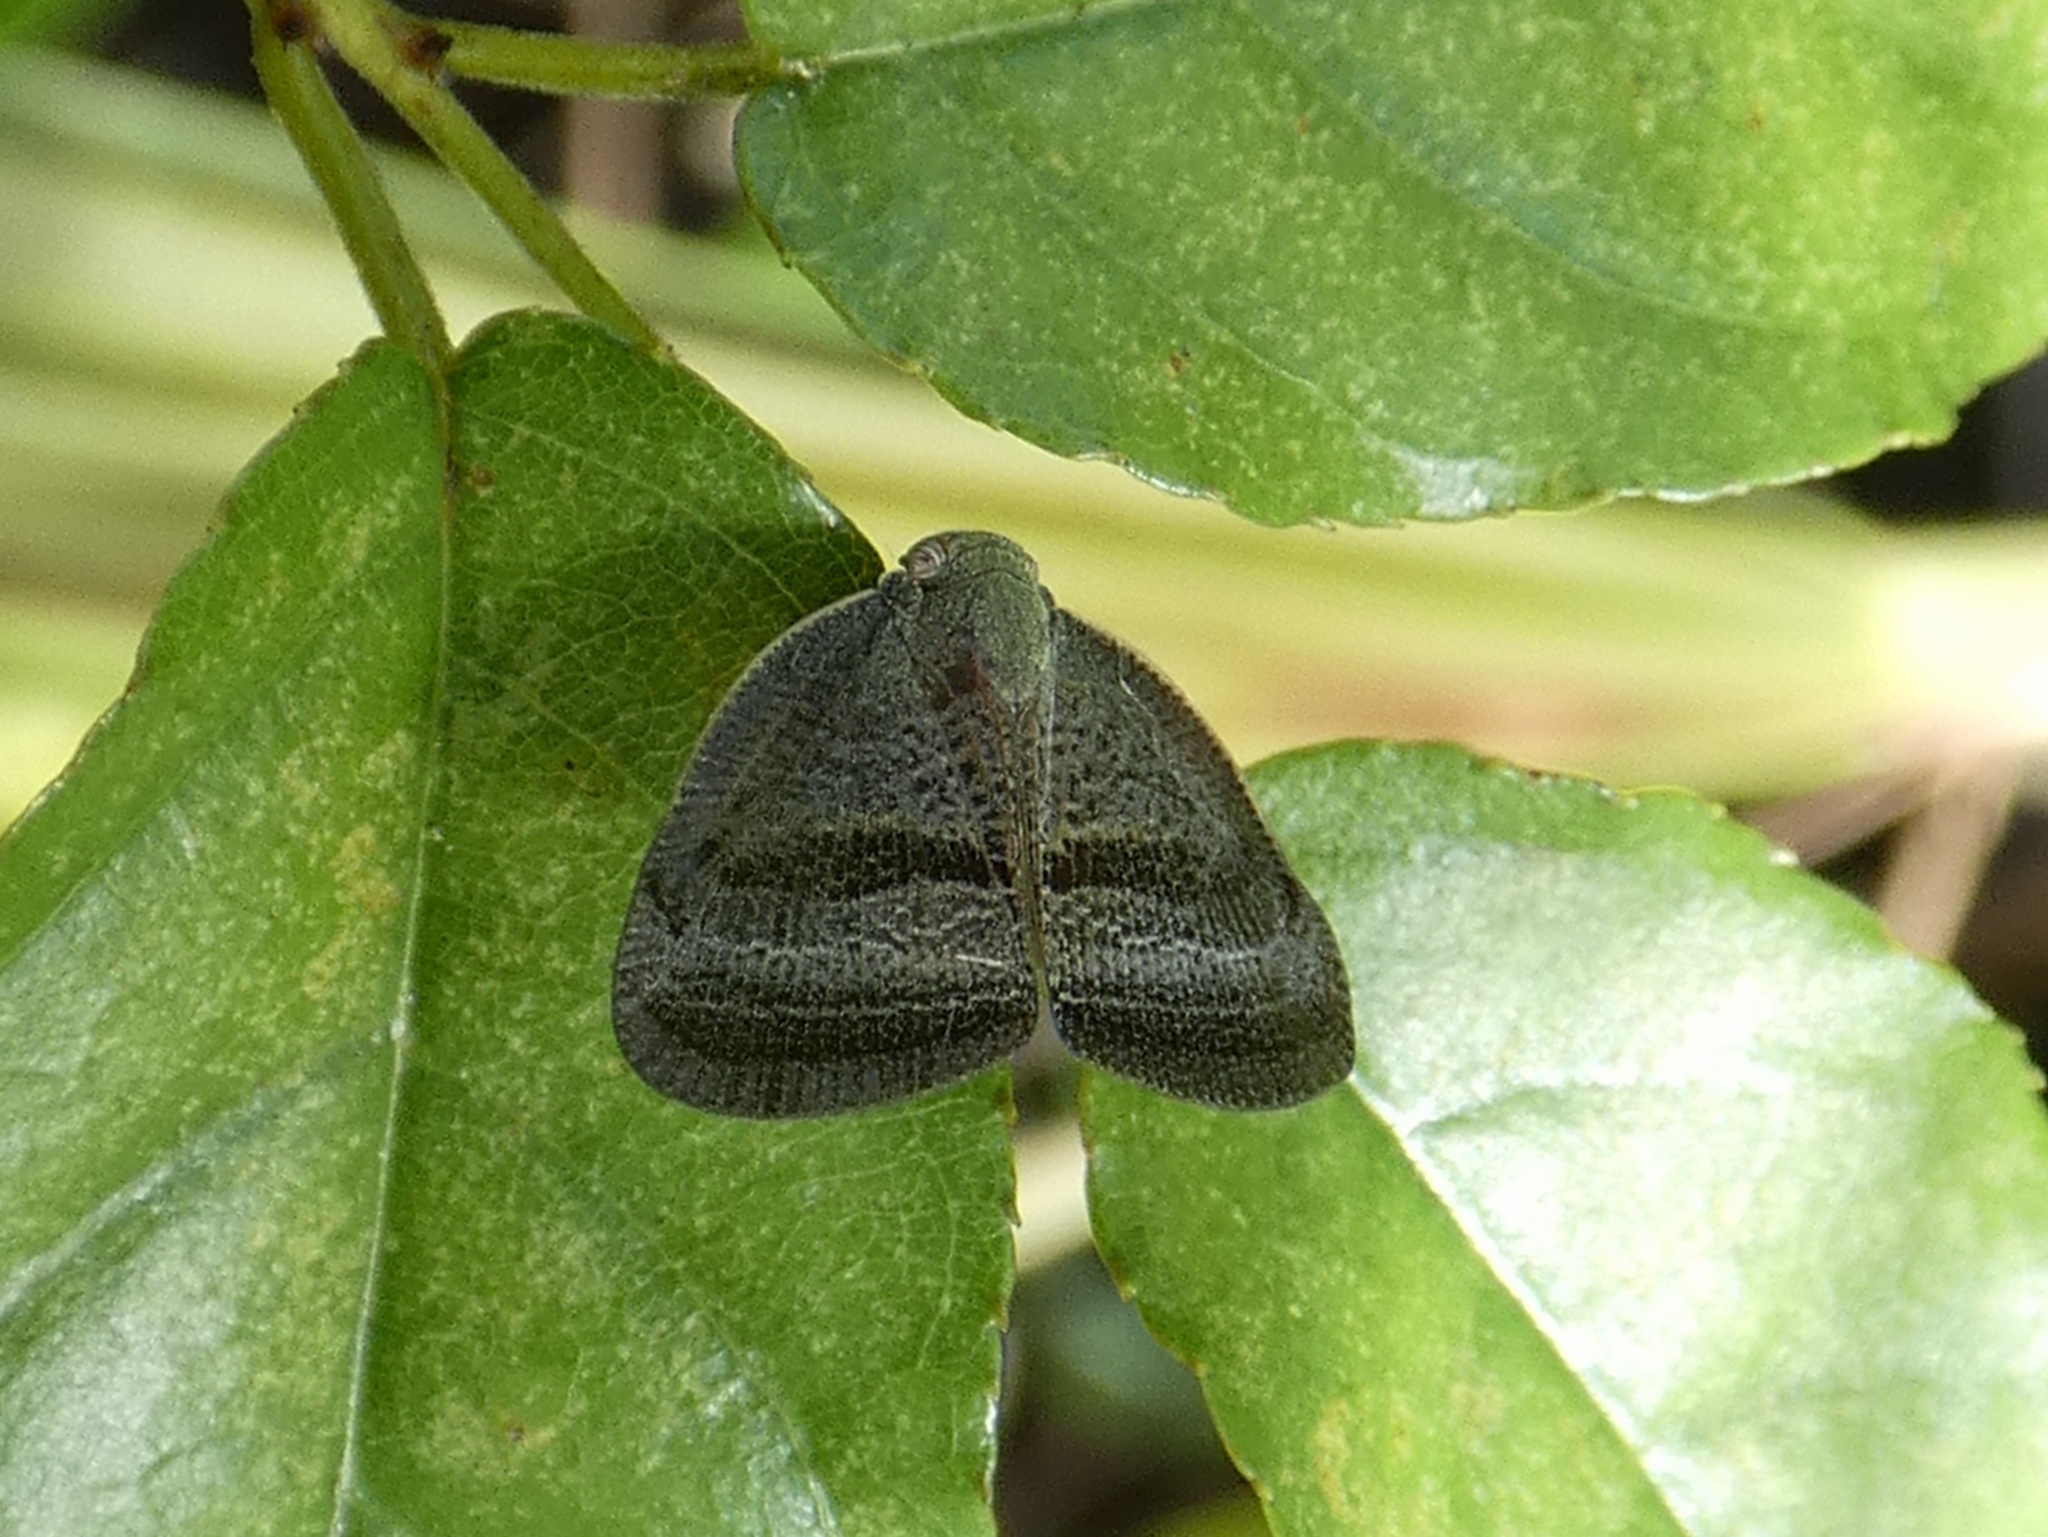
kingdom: Animalia
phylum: Arthropoda
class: Insecta
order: Hemiptera
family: Ricaniidae
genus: Ricania
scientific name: Ricania taeniata
